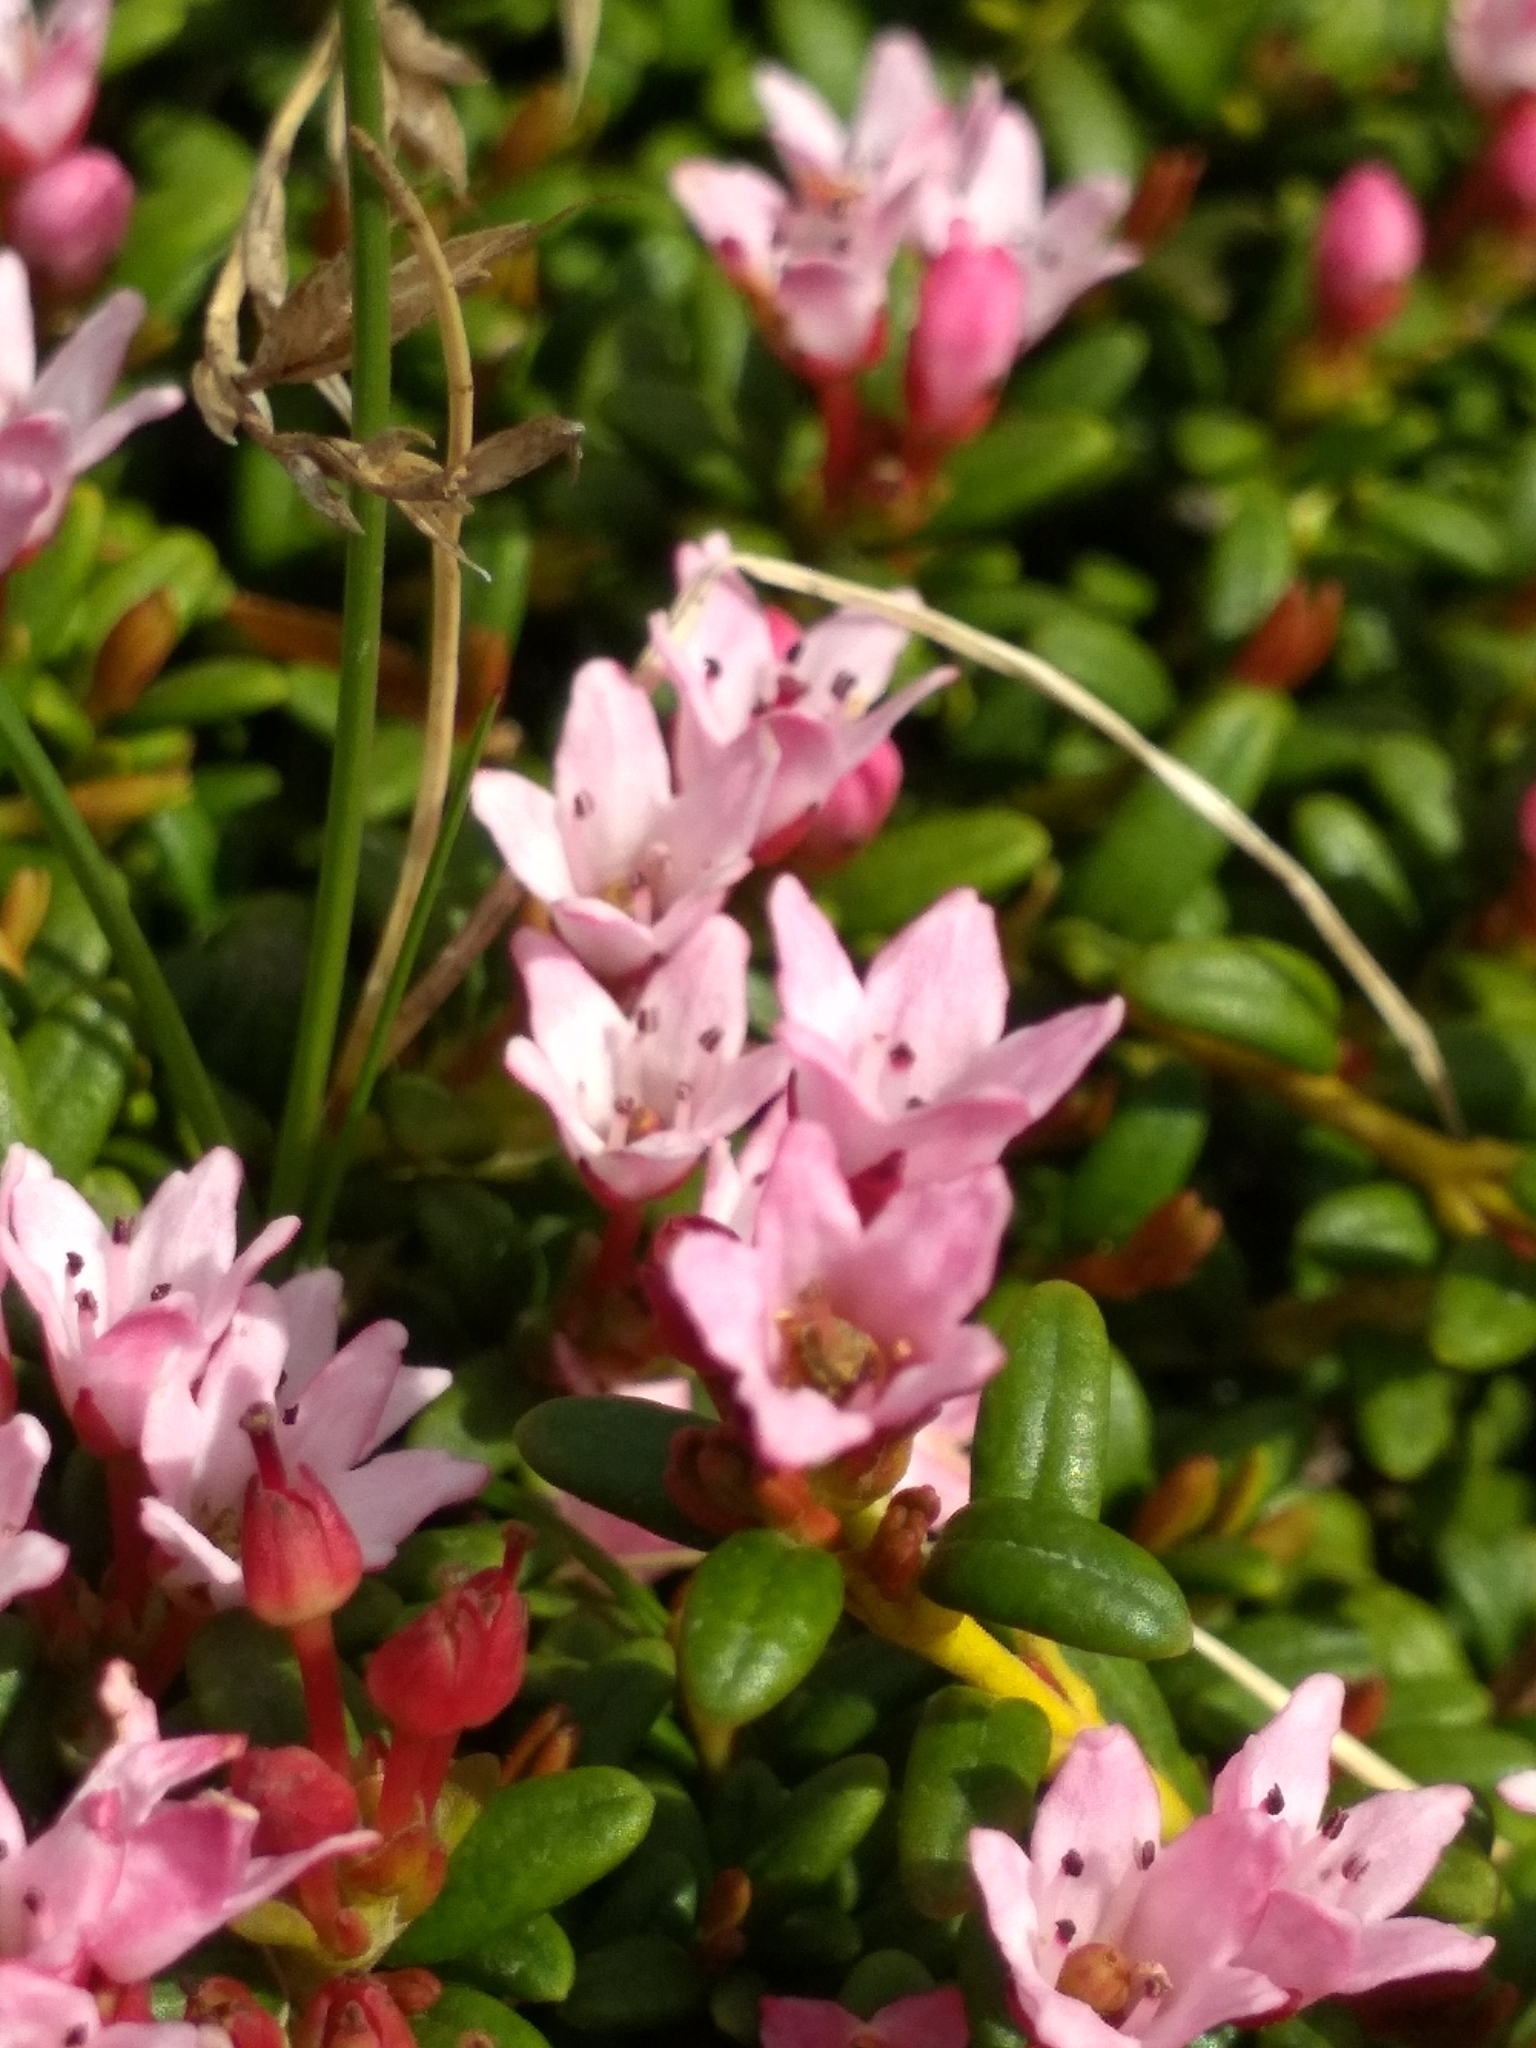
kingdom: Plantae
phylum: Tracheophyta
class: Magnoliopsida
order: Ericales
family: Ericaceae
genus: Kalmia
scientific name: Kalmia procumbens
